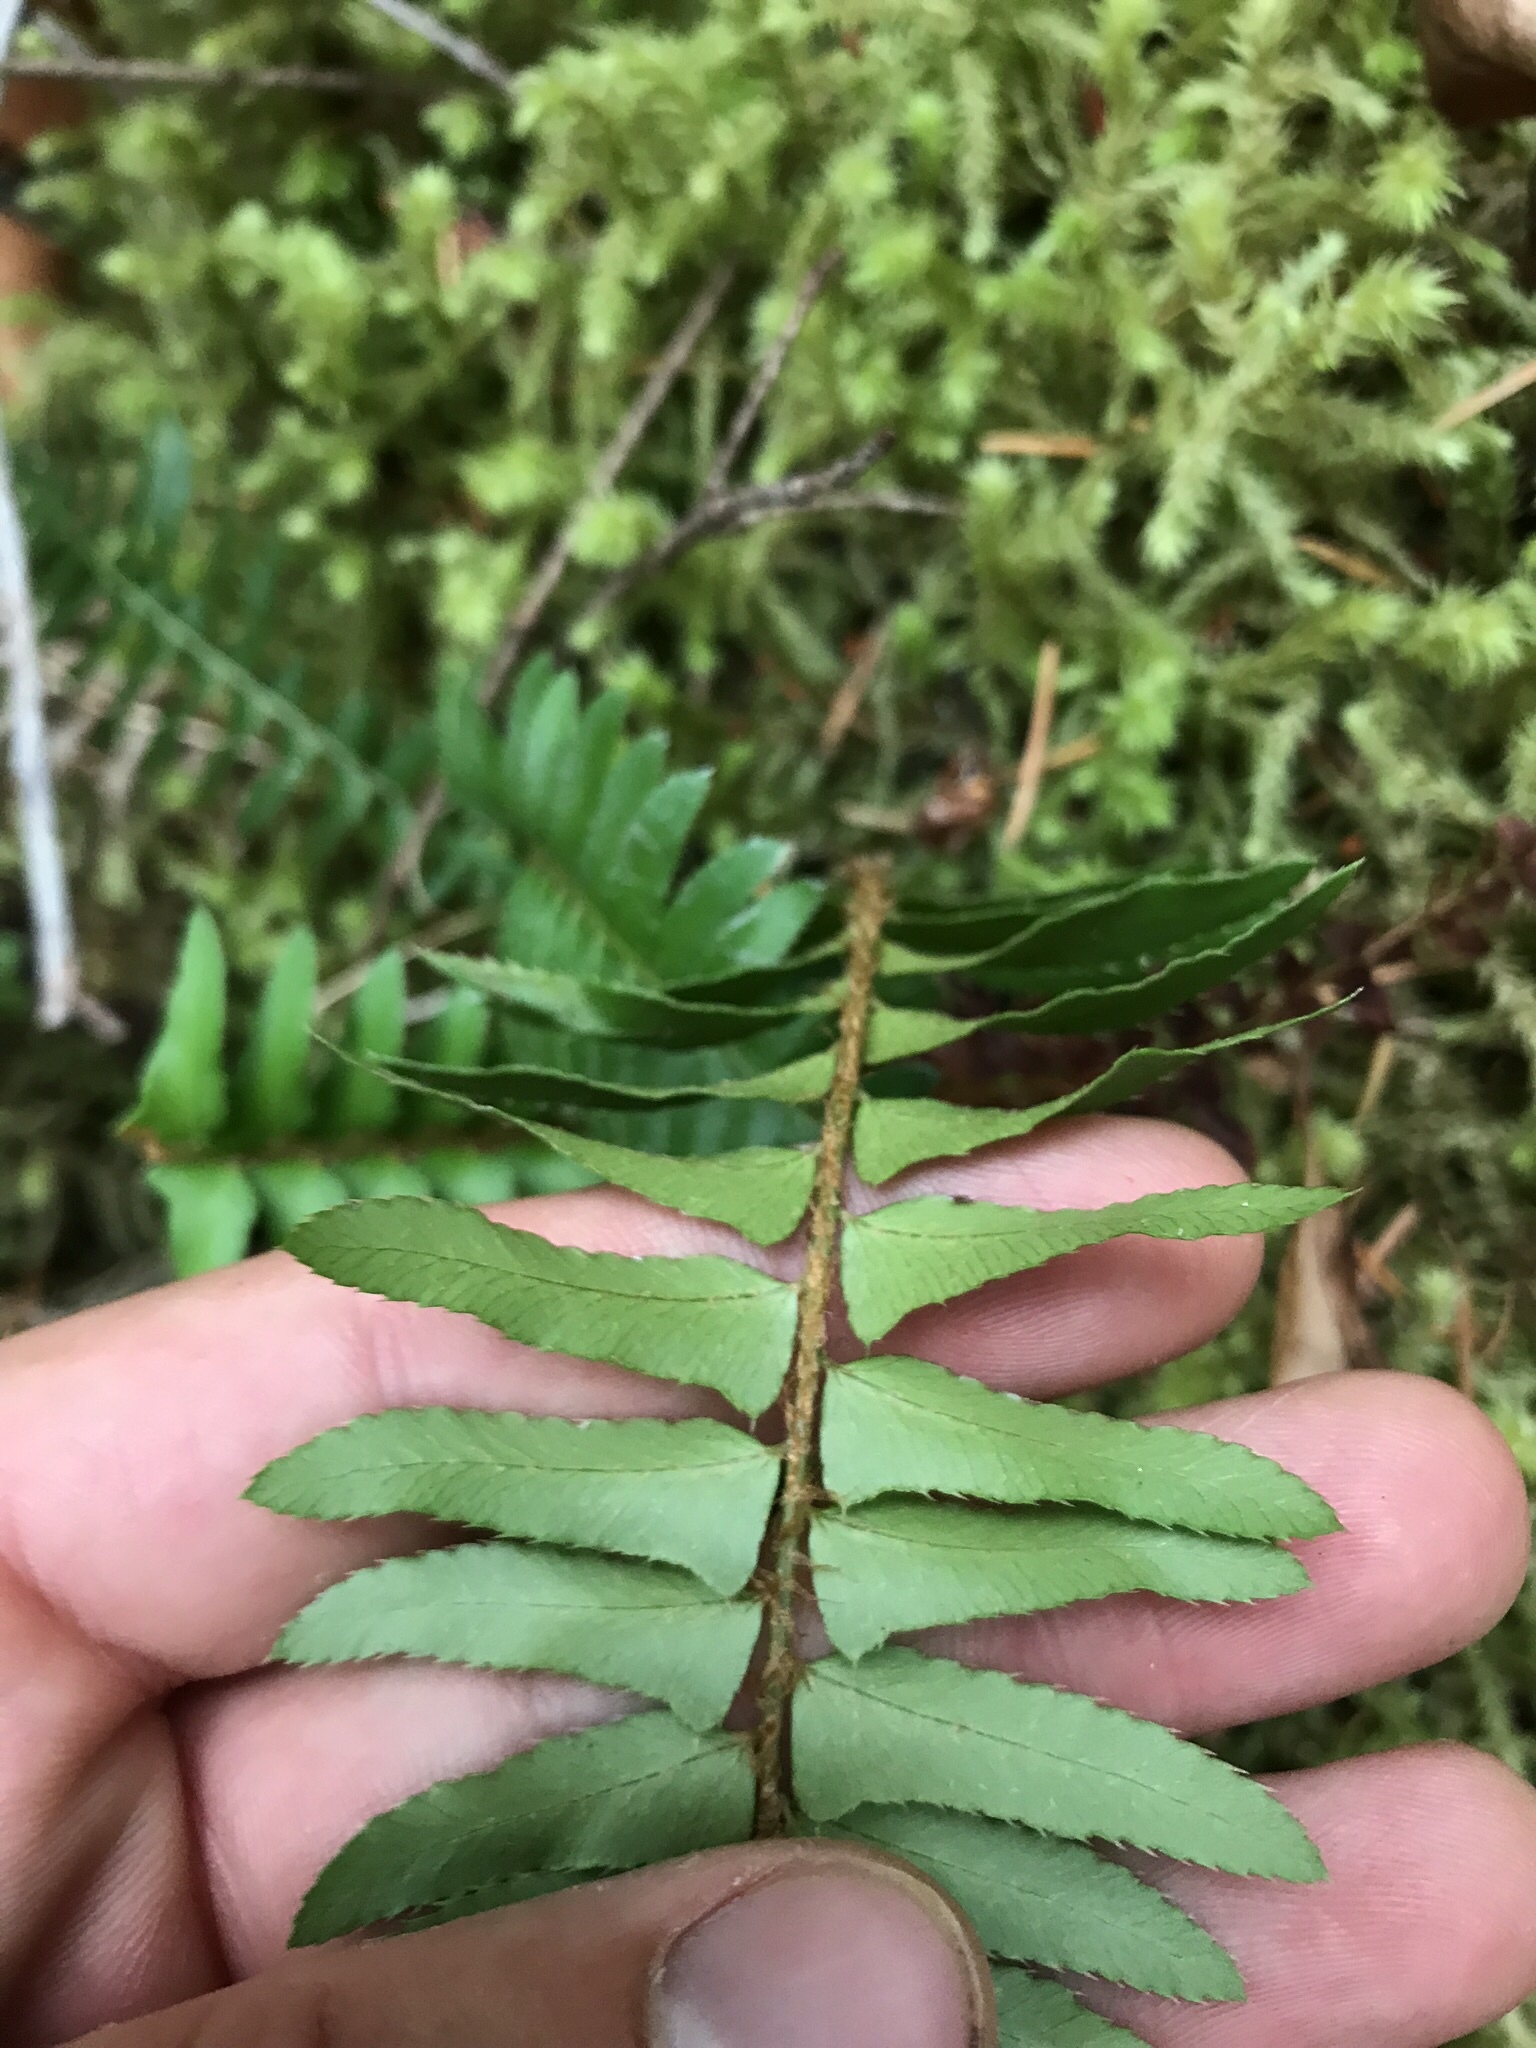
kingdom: Plantae
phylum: Tracheophyta
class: Polypodiopsida
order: Polypodiales
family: Dryopteridaceae
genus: Polystichum
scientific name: Polystichum munitum
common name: Western sword-fern
